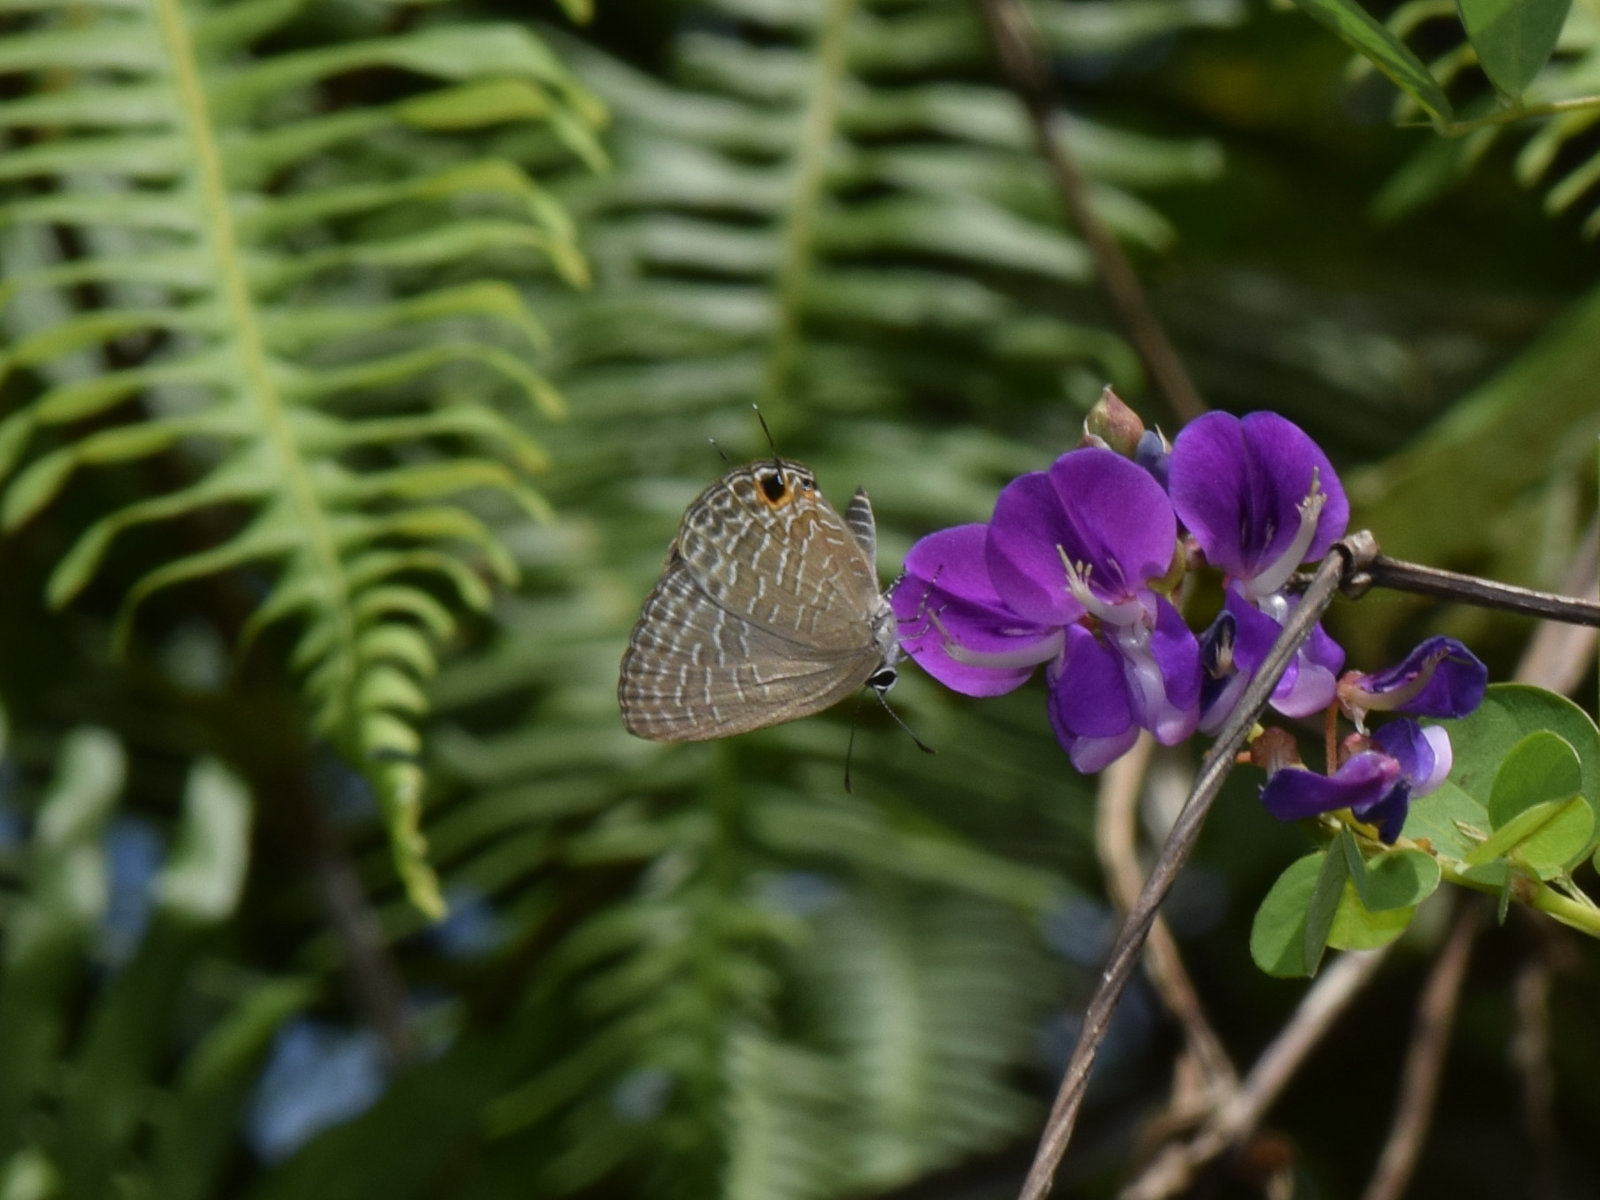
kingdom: Animalia
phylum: Arthropoda
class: Insecta
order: Lepidoptera
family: Lycaenidae
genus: Jamides
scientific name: Jamides bochus
